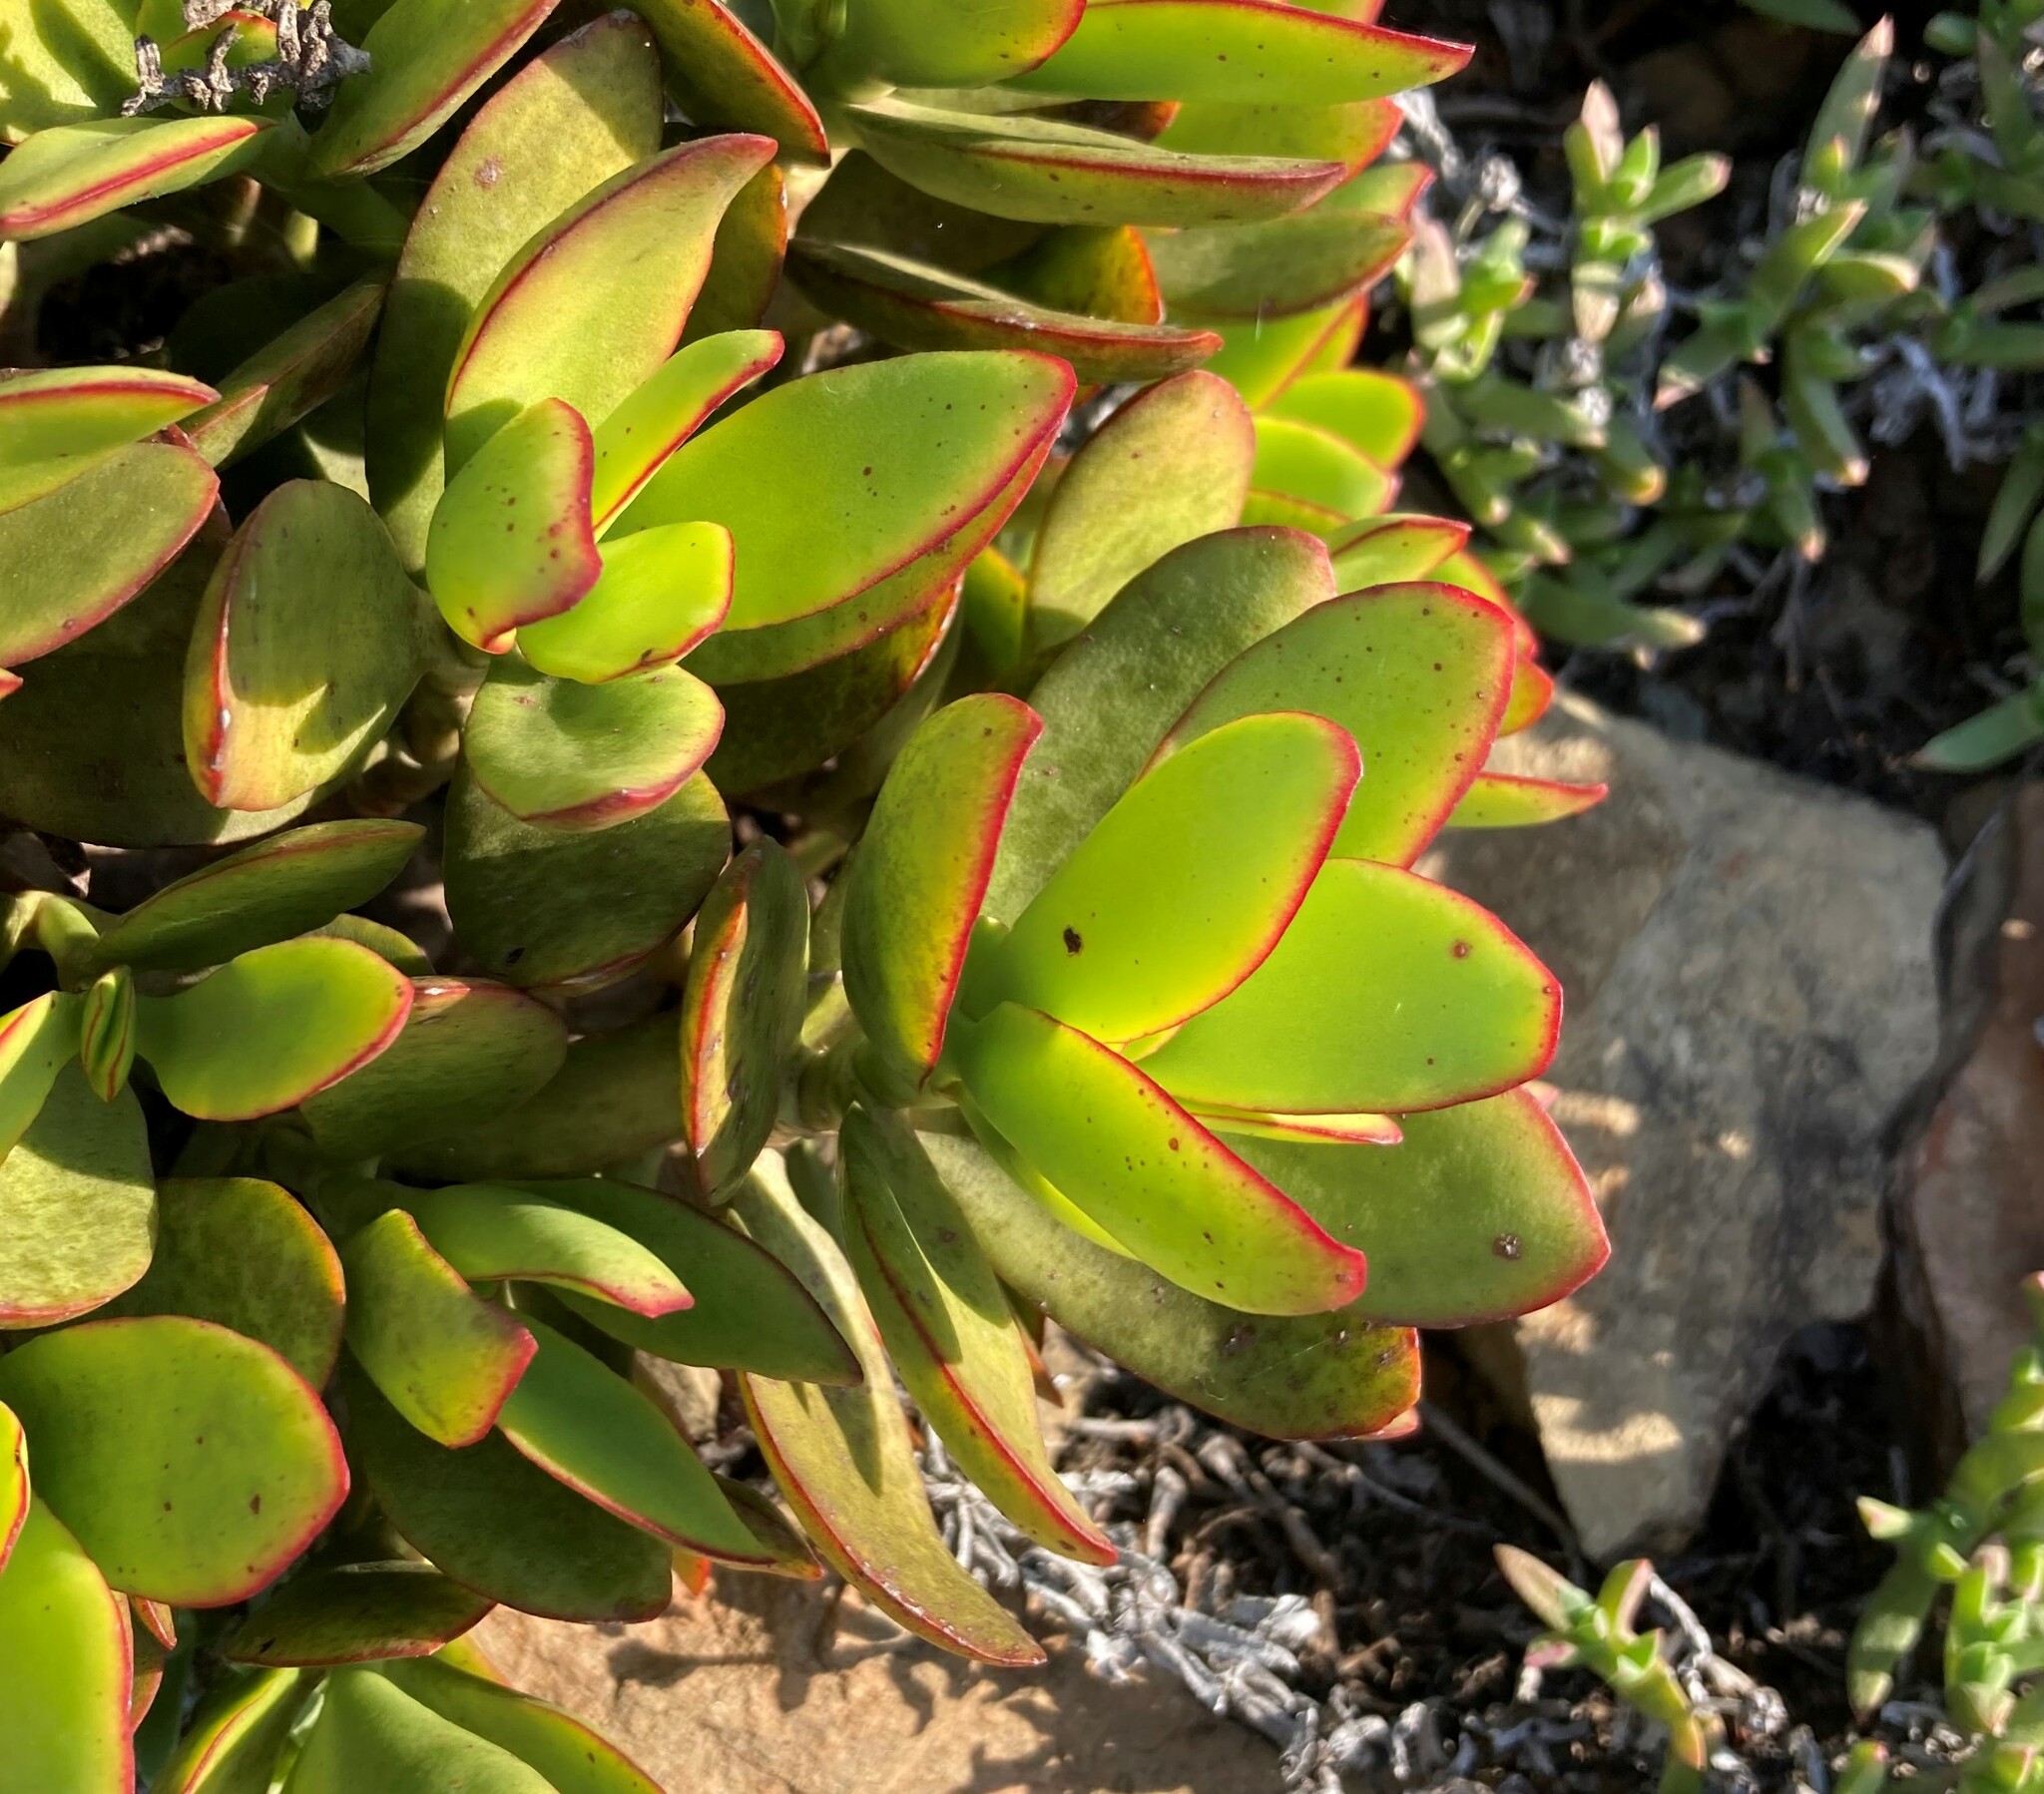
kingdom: Plantae
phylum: Tracheophyta
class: Magnoliopsida
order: Saxifragales
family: Crassulaceae
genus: Crassula
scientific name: Crassula cultrata
